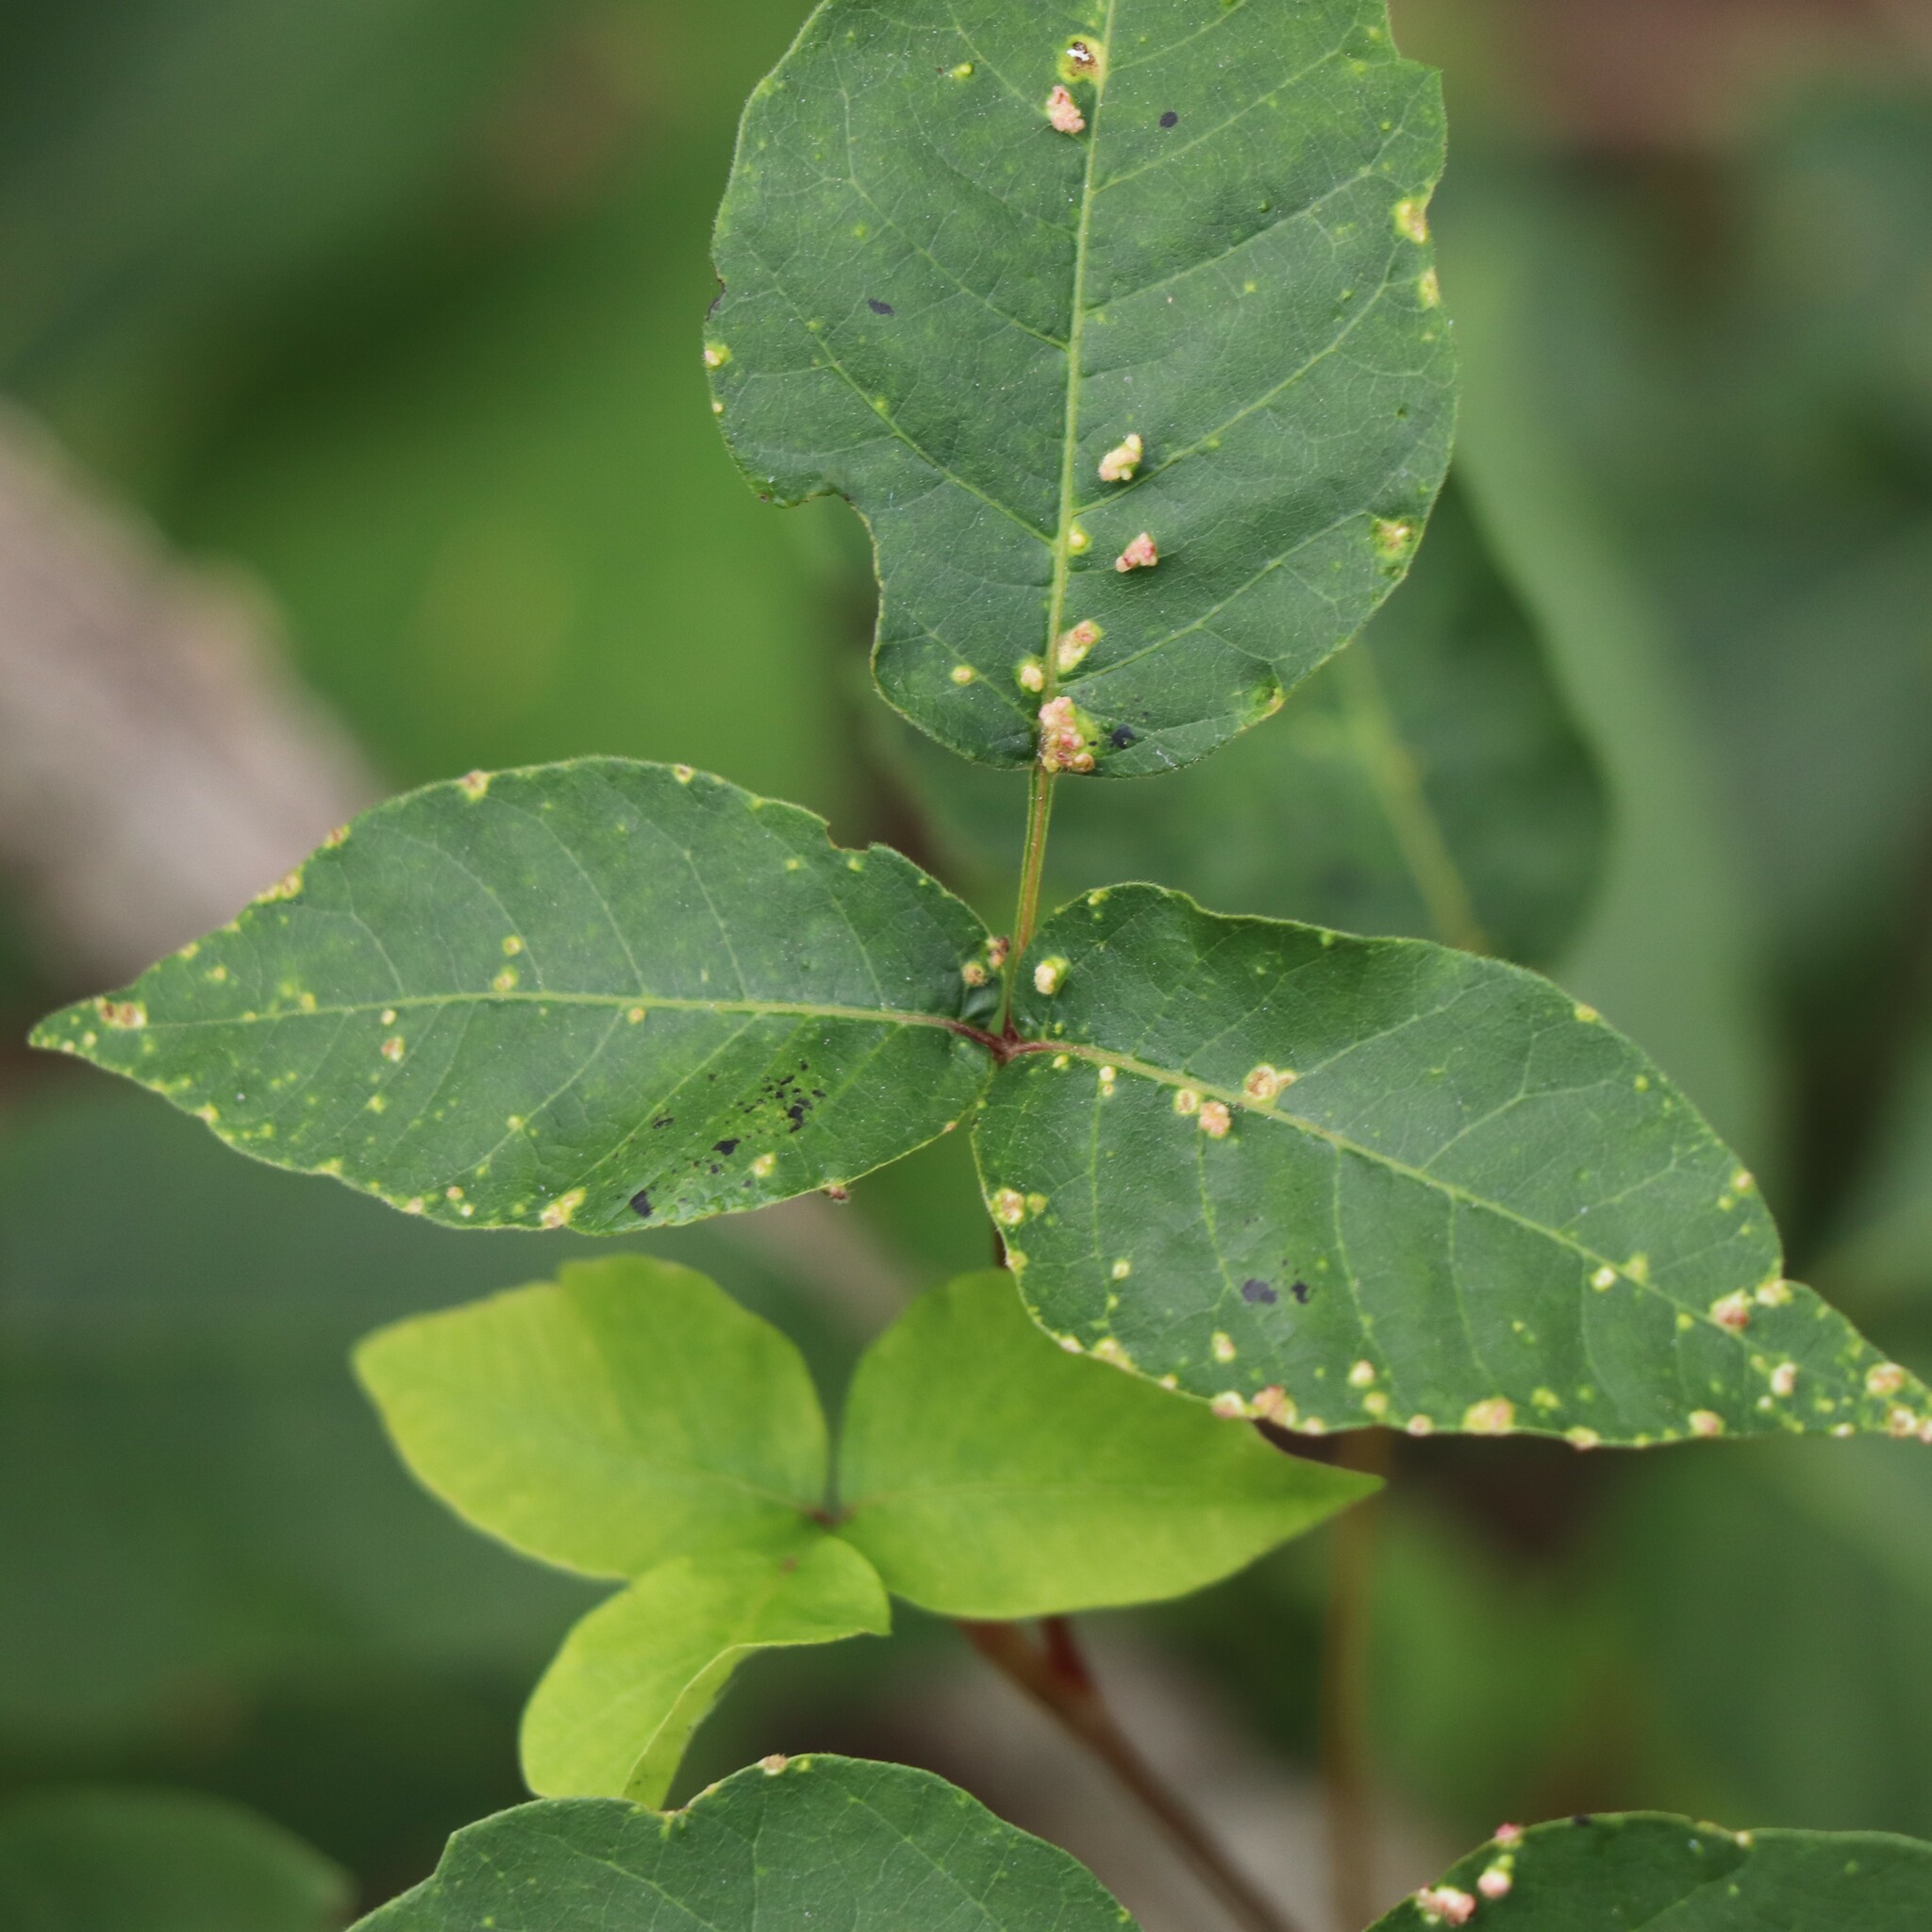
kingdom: Animalia
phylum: Arthropoda
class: Arachnida
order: Trombidiformes
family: Eriophyidae
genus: Aculops
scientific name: Aculops
